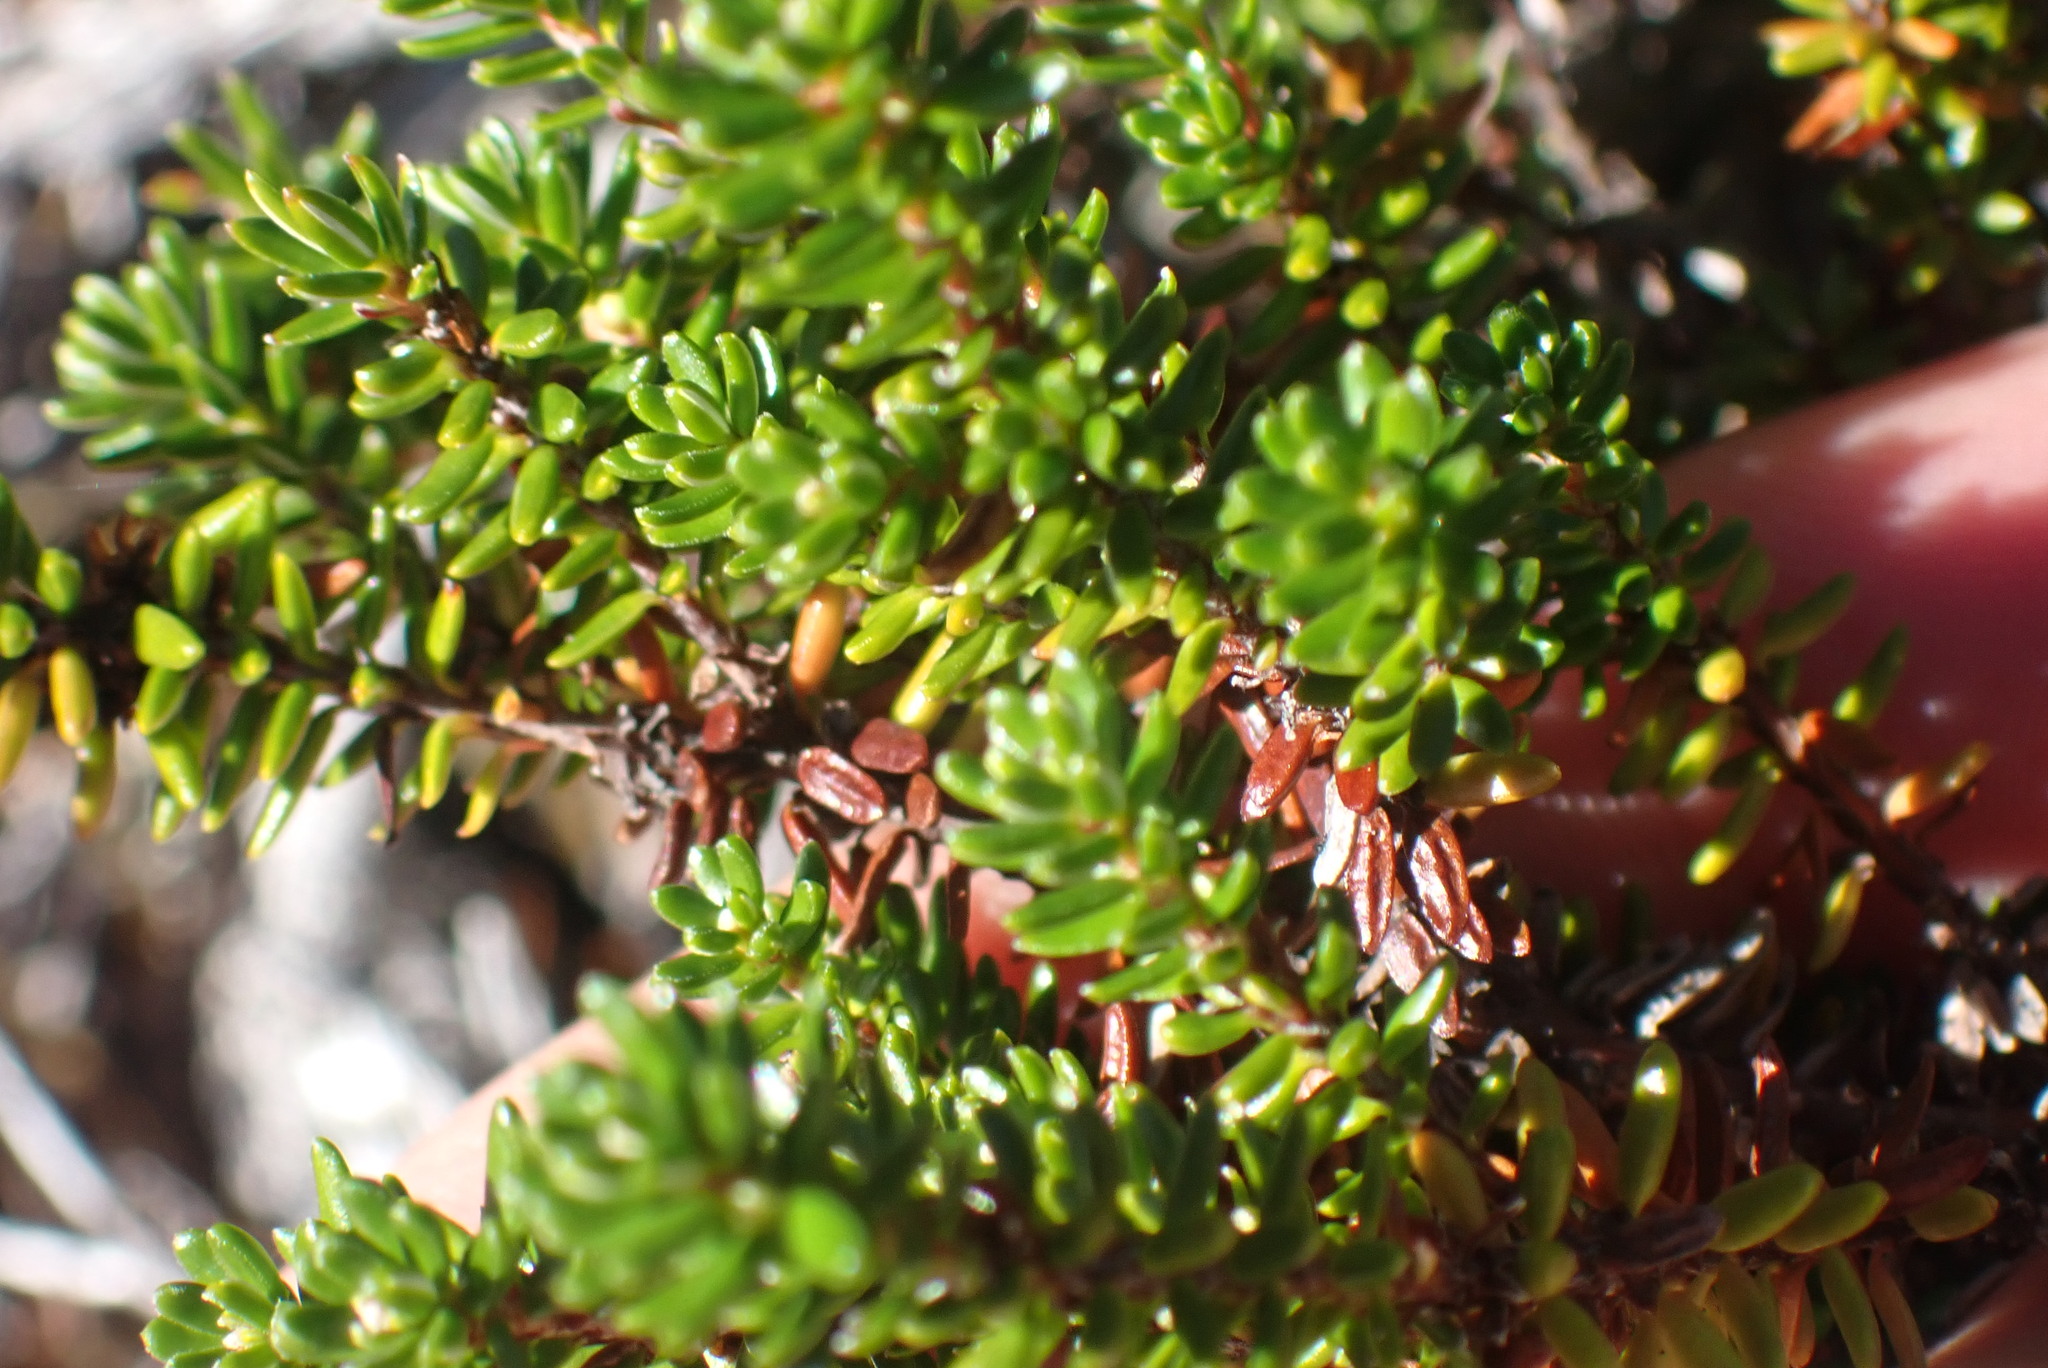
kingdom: Plantae
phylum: Tracheophyta
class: Magnoliopsida
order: Ericales
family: Ericaceae
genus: Empetrum
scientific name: Empetrum nigrum
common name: Black crowberry
